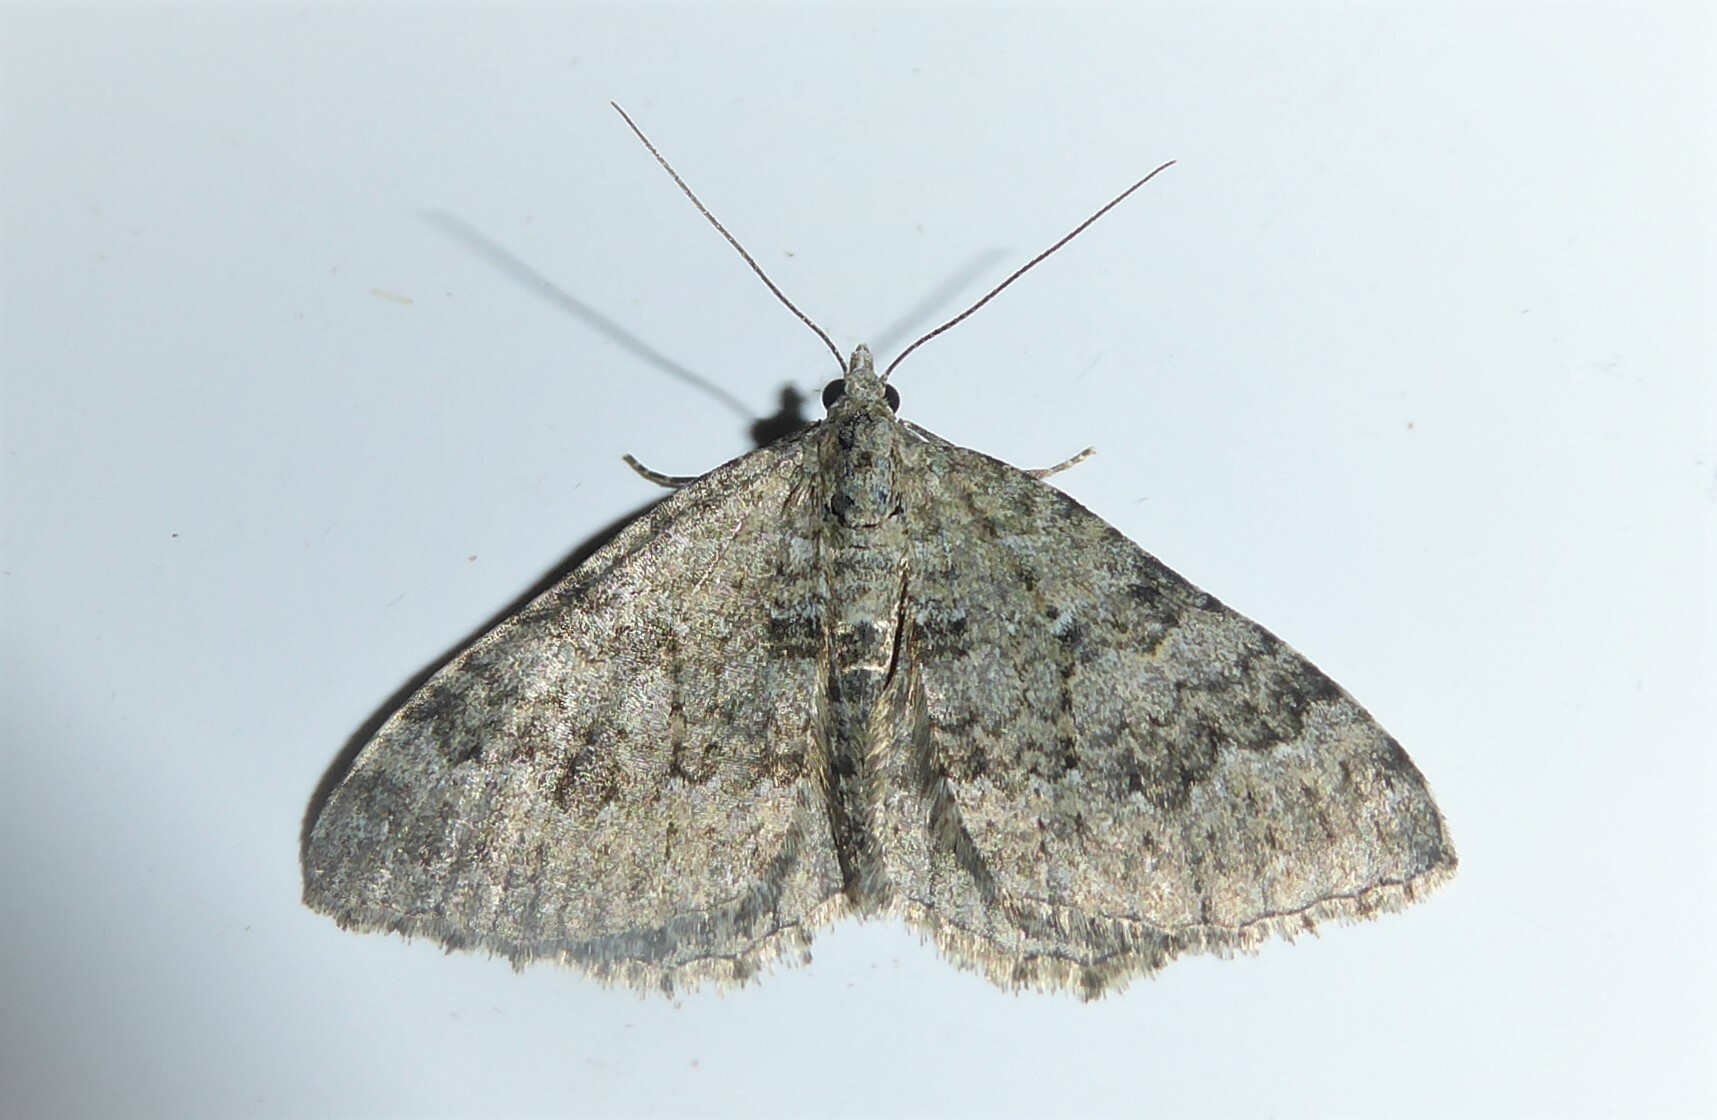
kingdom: Animalia
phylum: Arthropoda
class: Insecta
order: Lepidoptera
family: Geometridae
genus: Helastia
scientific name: Helastia corcularia
